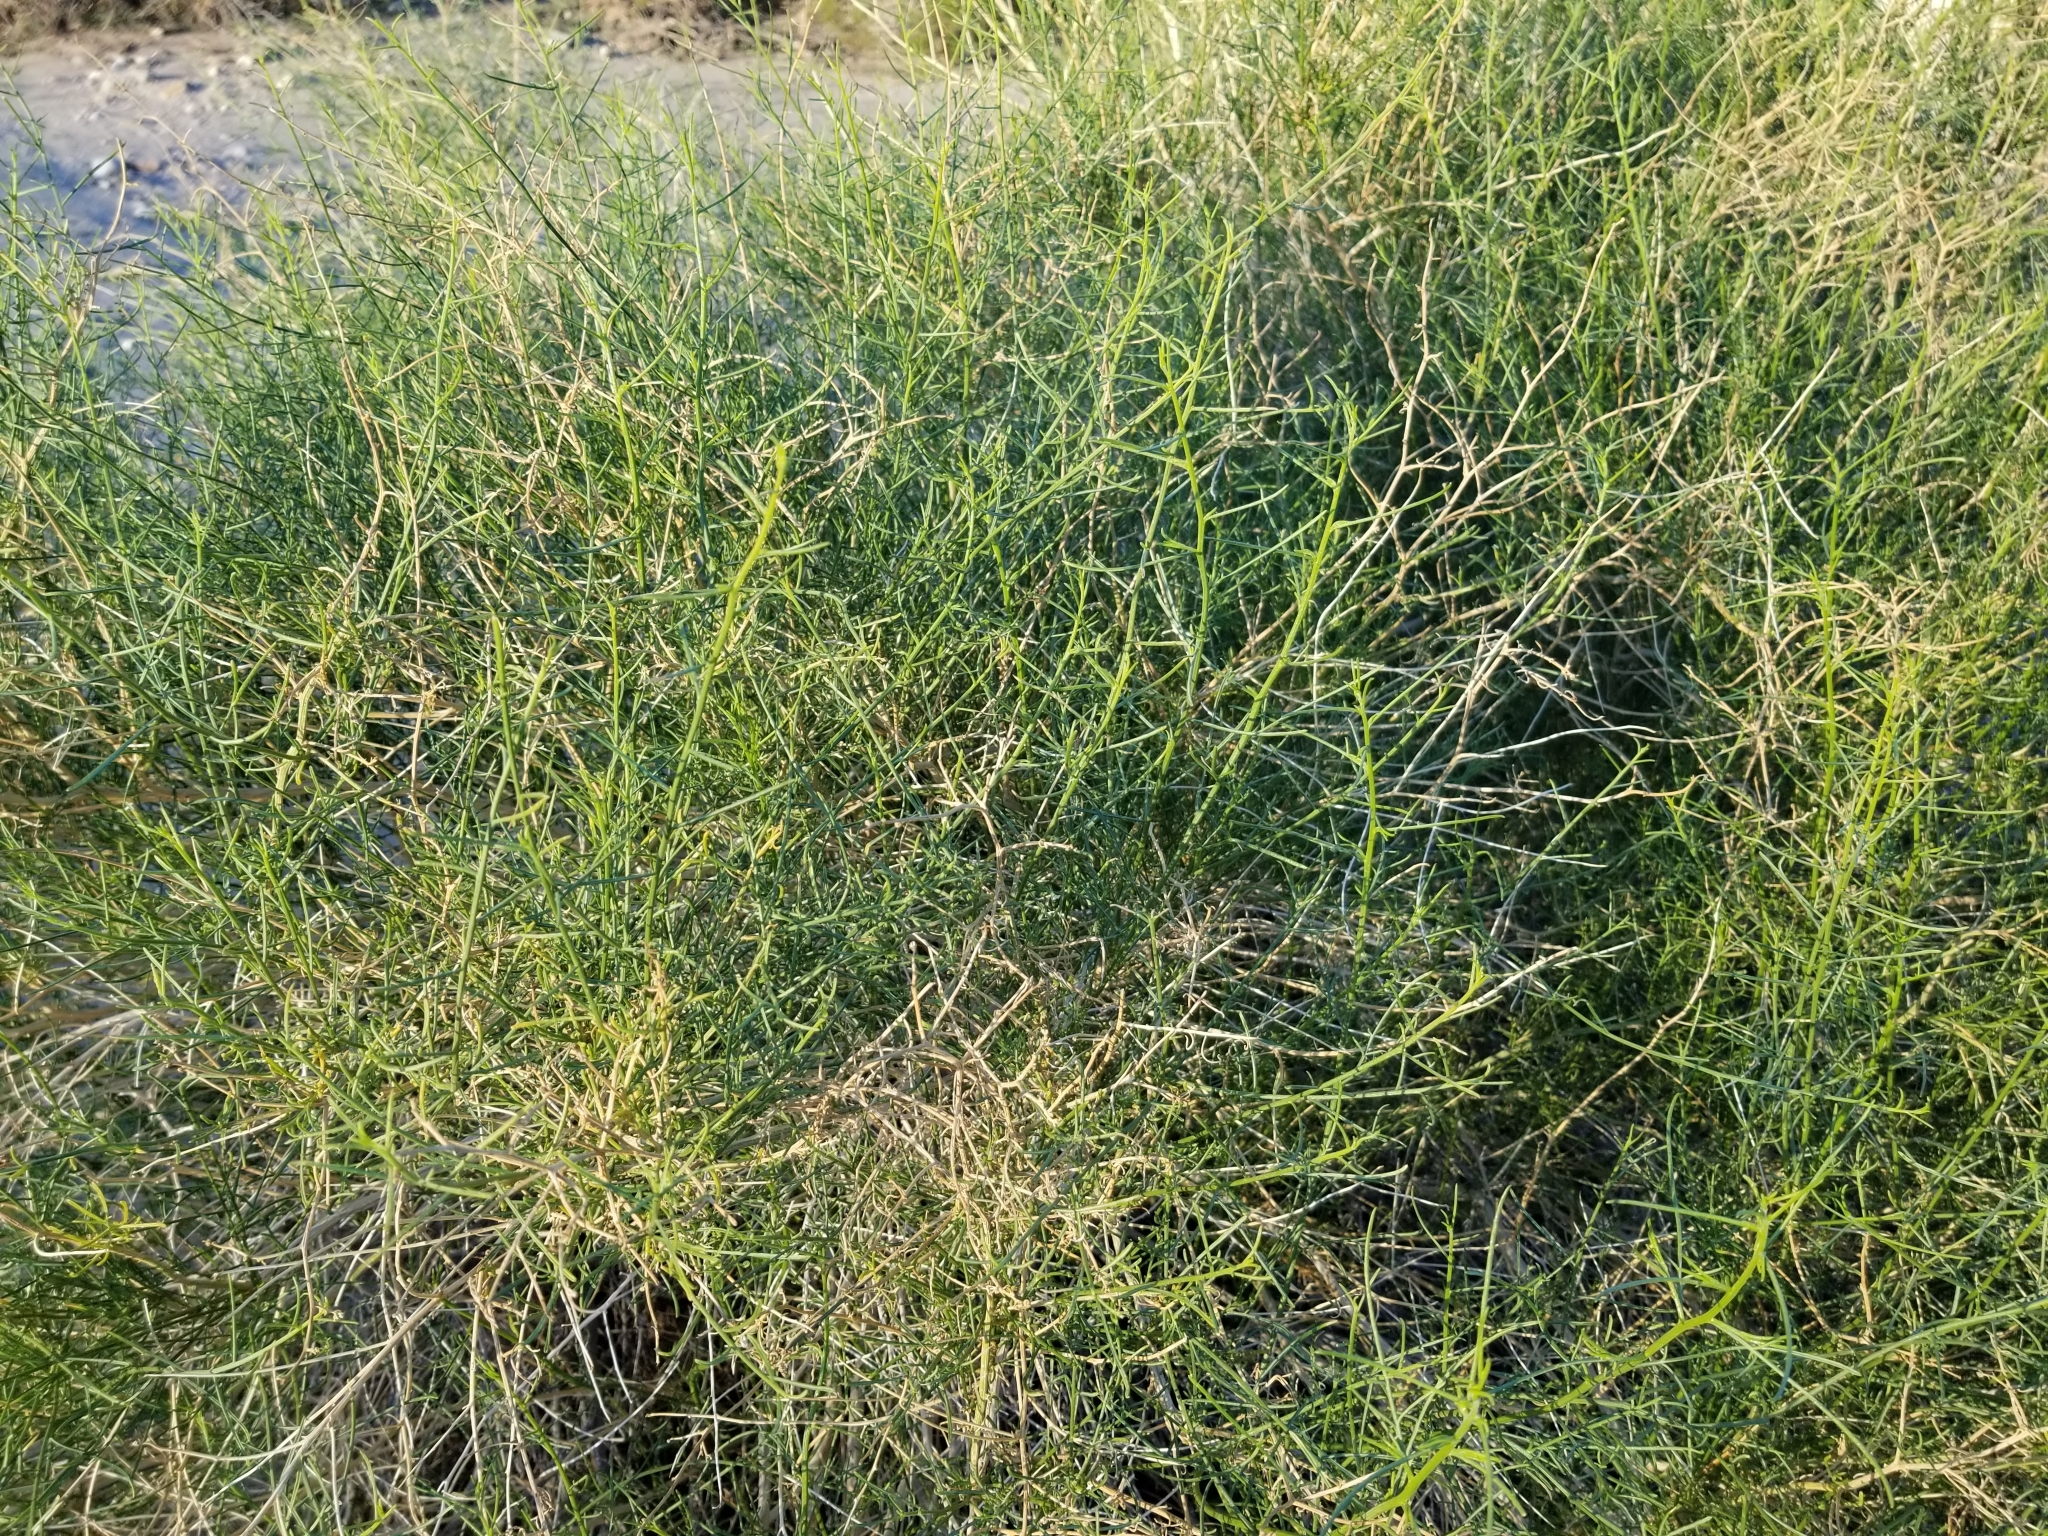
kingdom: Plantae
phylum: Tracheophyta
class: Magnoliopsida
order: Asterales
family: Asteraceae
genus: Ambrosia
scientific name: Ambrosia salsola
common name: Burrobrush
